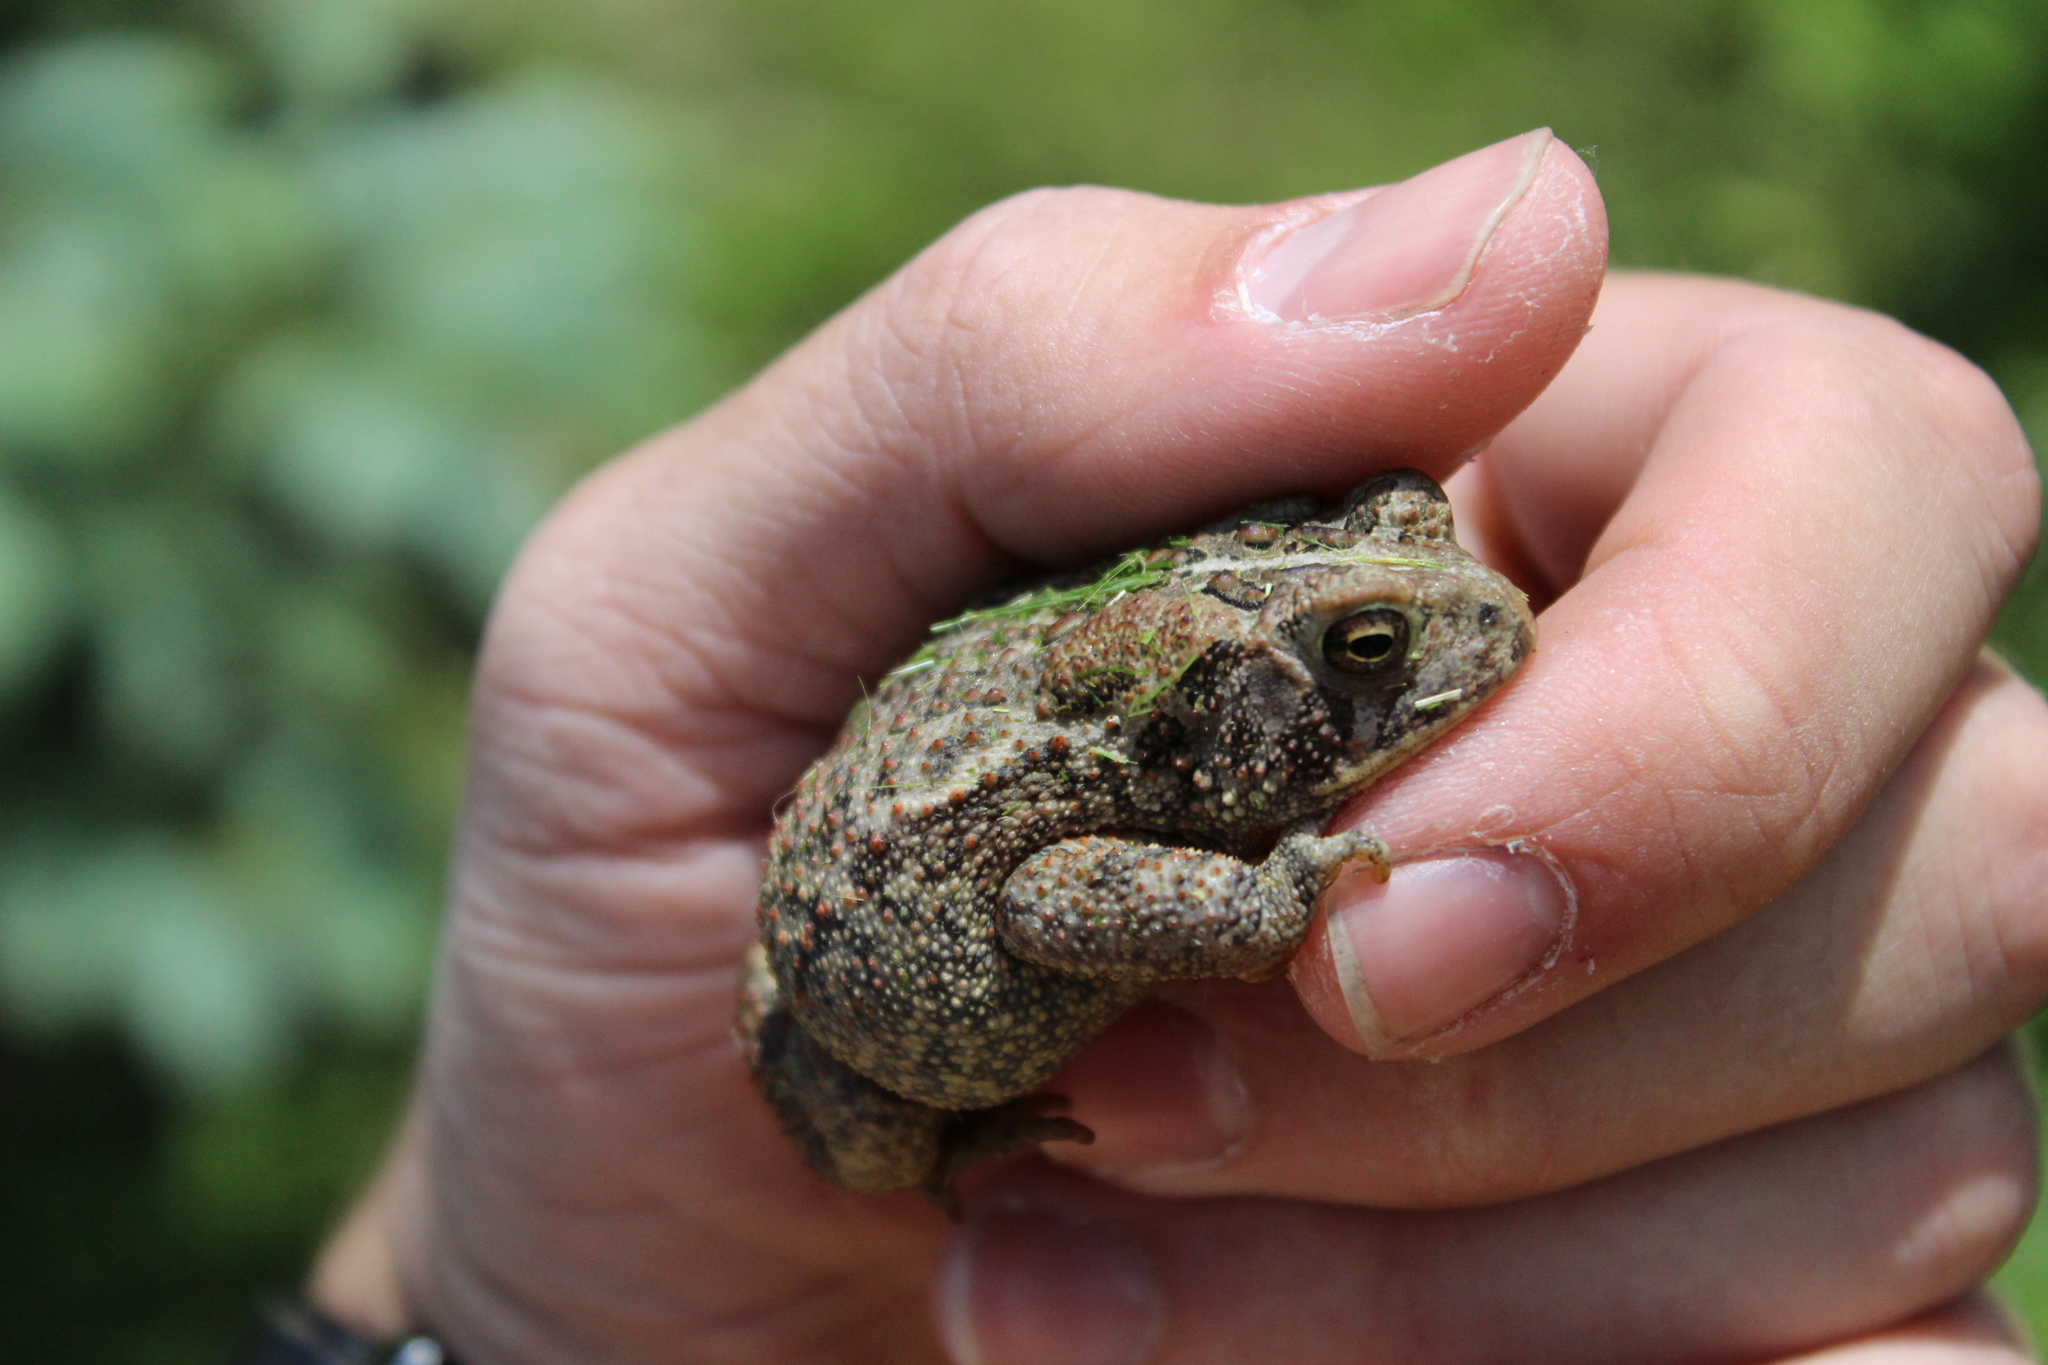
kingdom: Animalia
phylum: Chordata
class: Amphibia
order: Anura
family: Bufonidae
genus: Anaxyrus
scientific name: Anaxyrus americanus
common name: American toad
